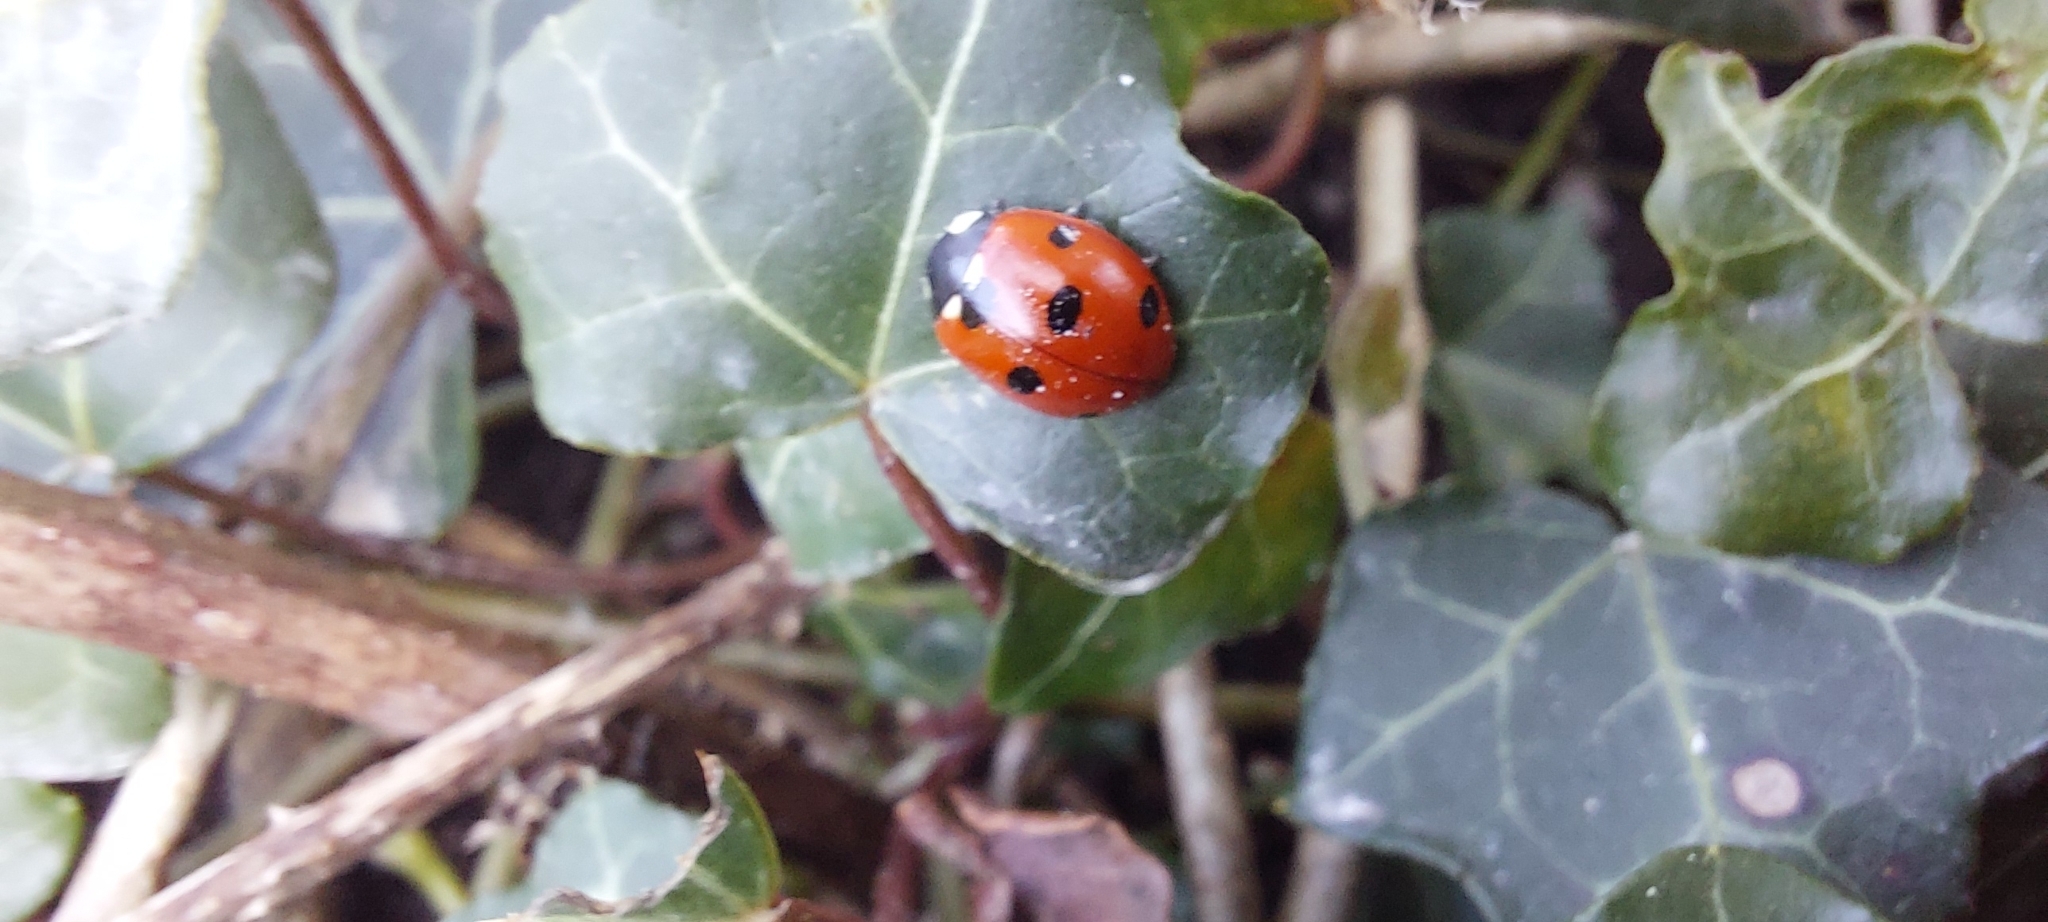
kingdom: Animalia
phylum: Arthropoda
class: Insecta
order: Coleoptera
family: Coccinellidae
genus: Coccinella
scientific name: Coccinella septempunctata
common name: Sevenspotted lady beetle
